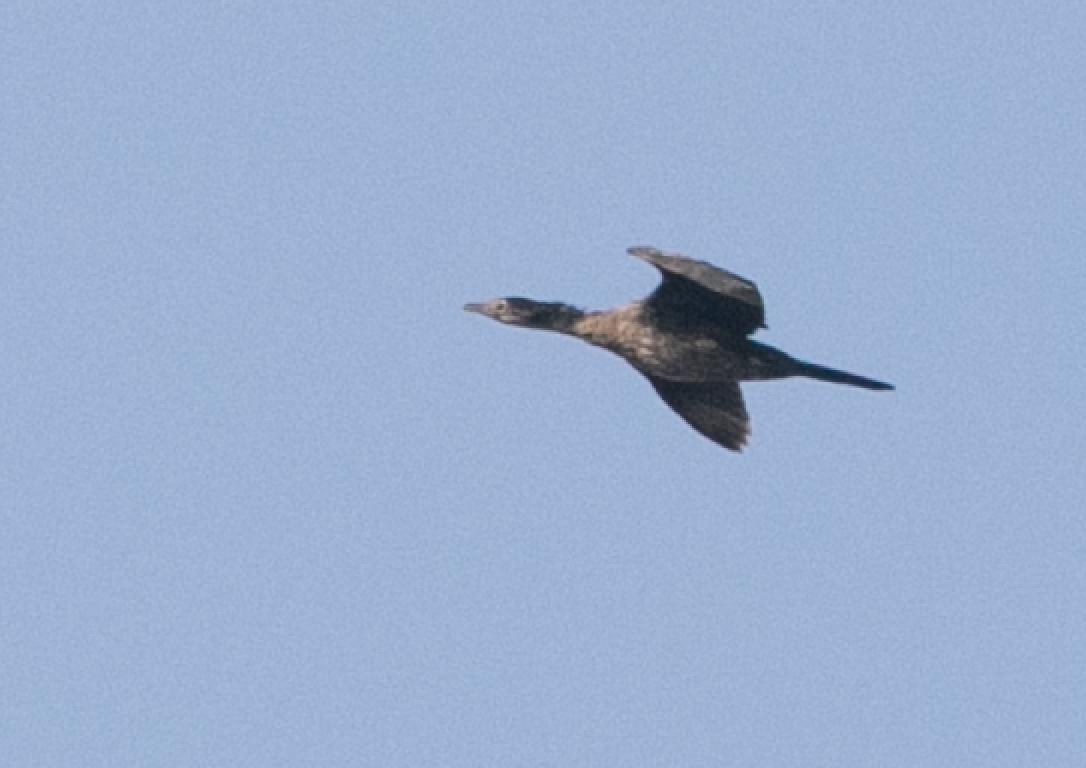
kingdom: Animalia
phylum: Chordata
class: Aves
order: Suliformes
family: Phalacrocoracidae
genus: Microcarbo
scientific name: Microcarbo pygmaeus
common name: Pygmy cormorant
